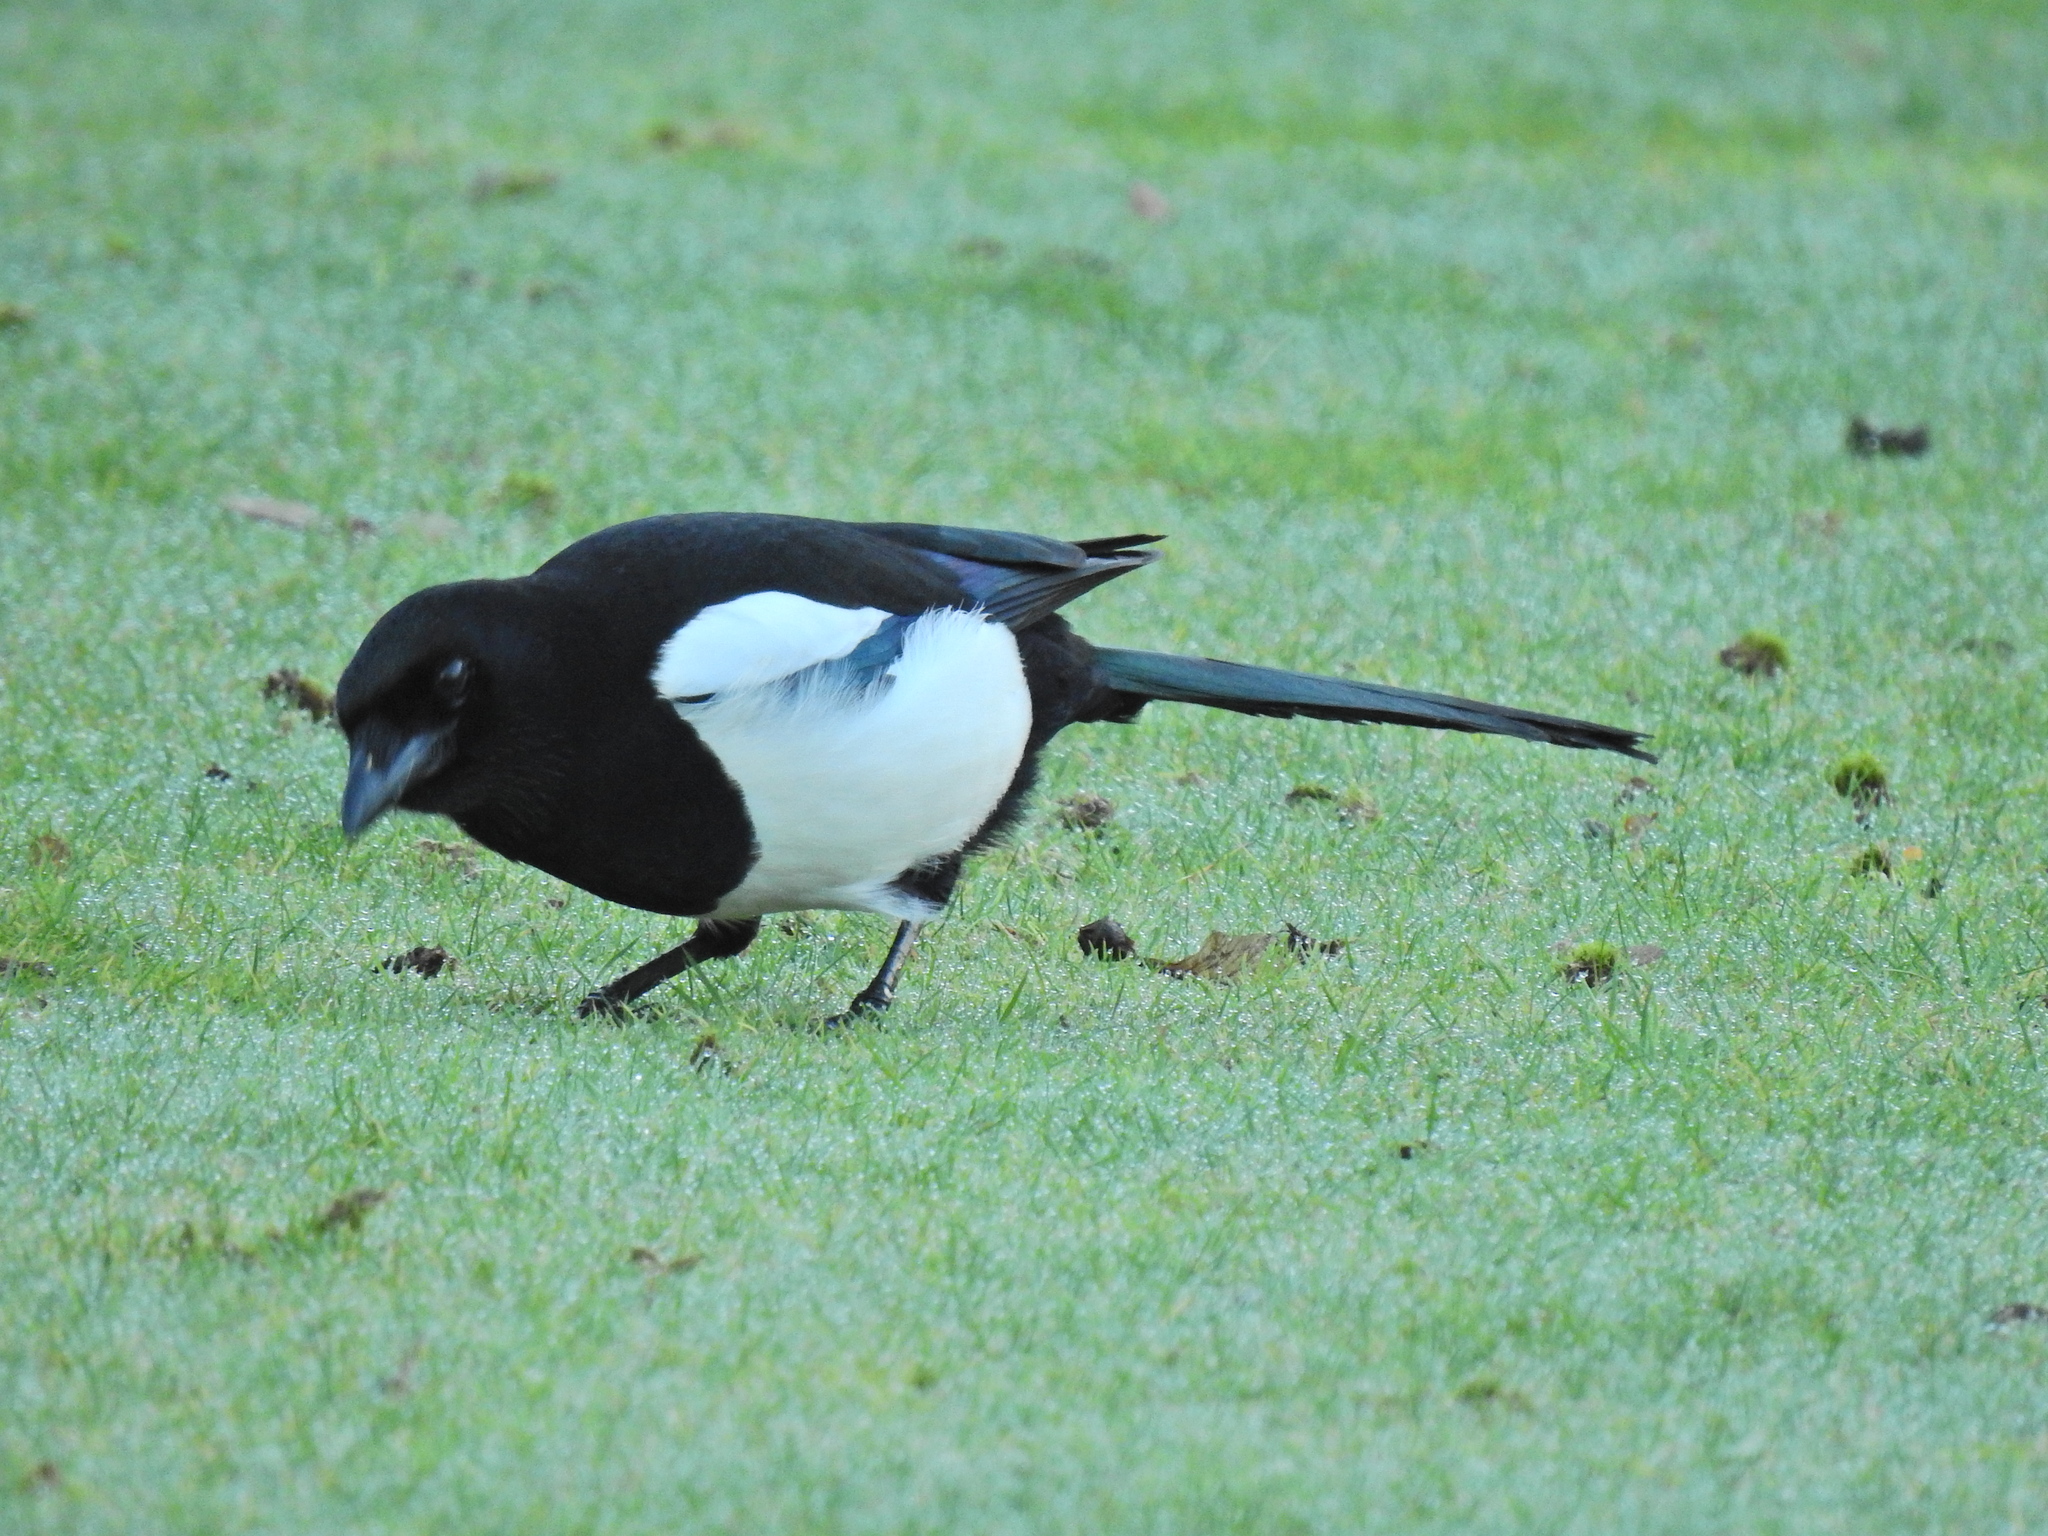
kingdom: Animalia
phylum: Chordata
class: Aves
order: Passeriformes
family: Corvidae
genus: Pica
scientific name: Pica pica
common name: Eurasian magpie
